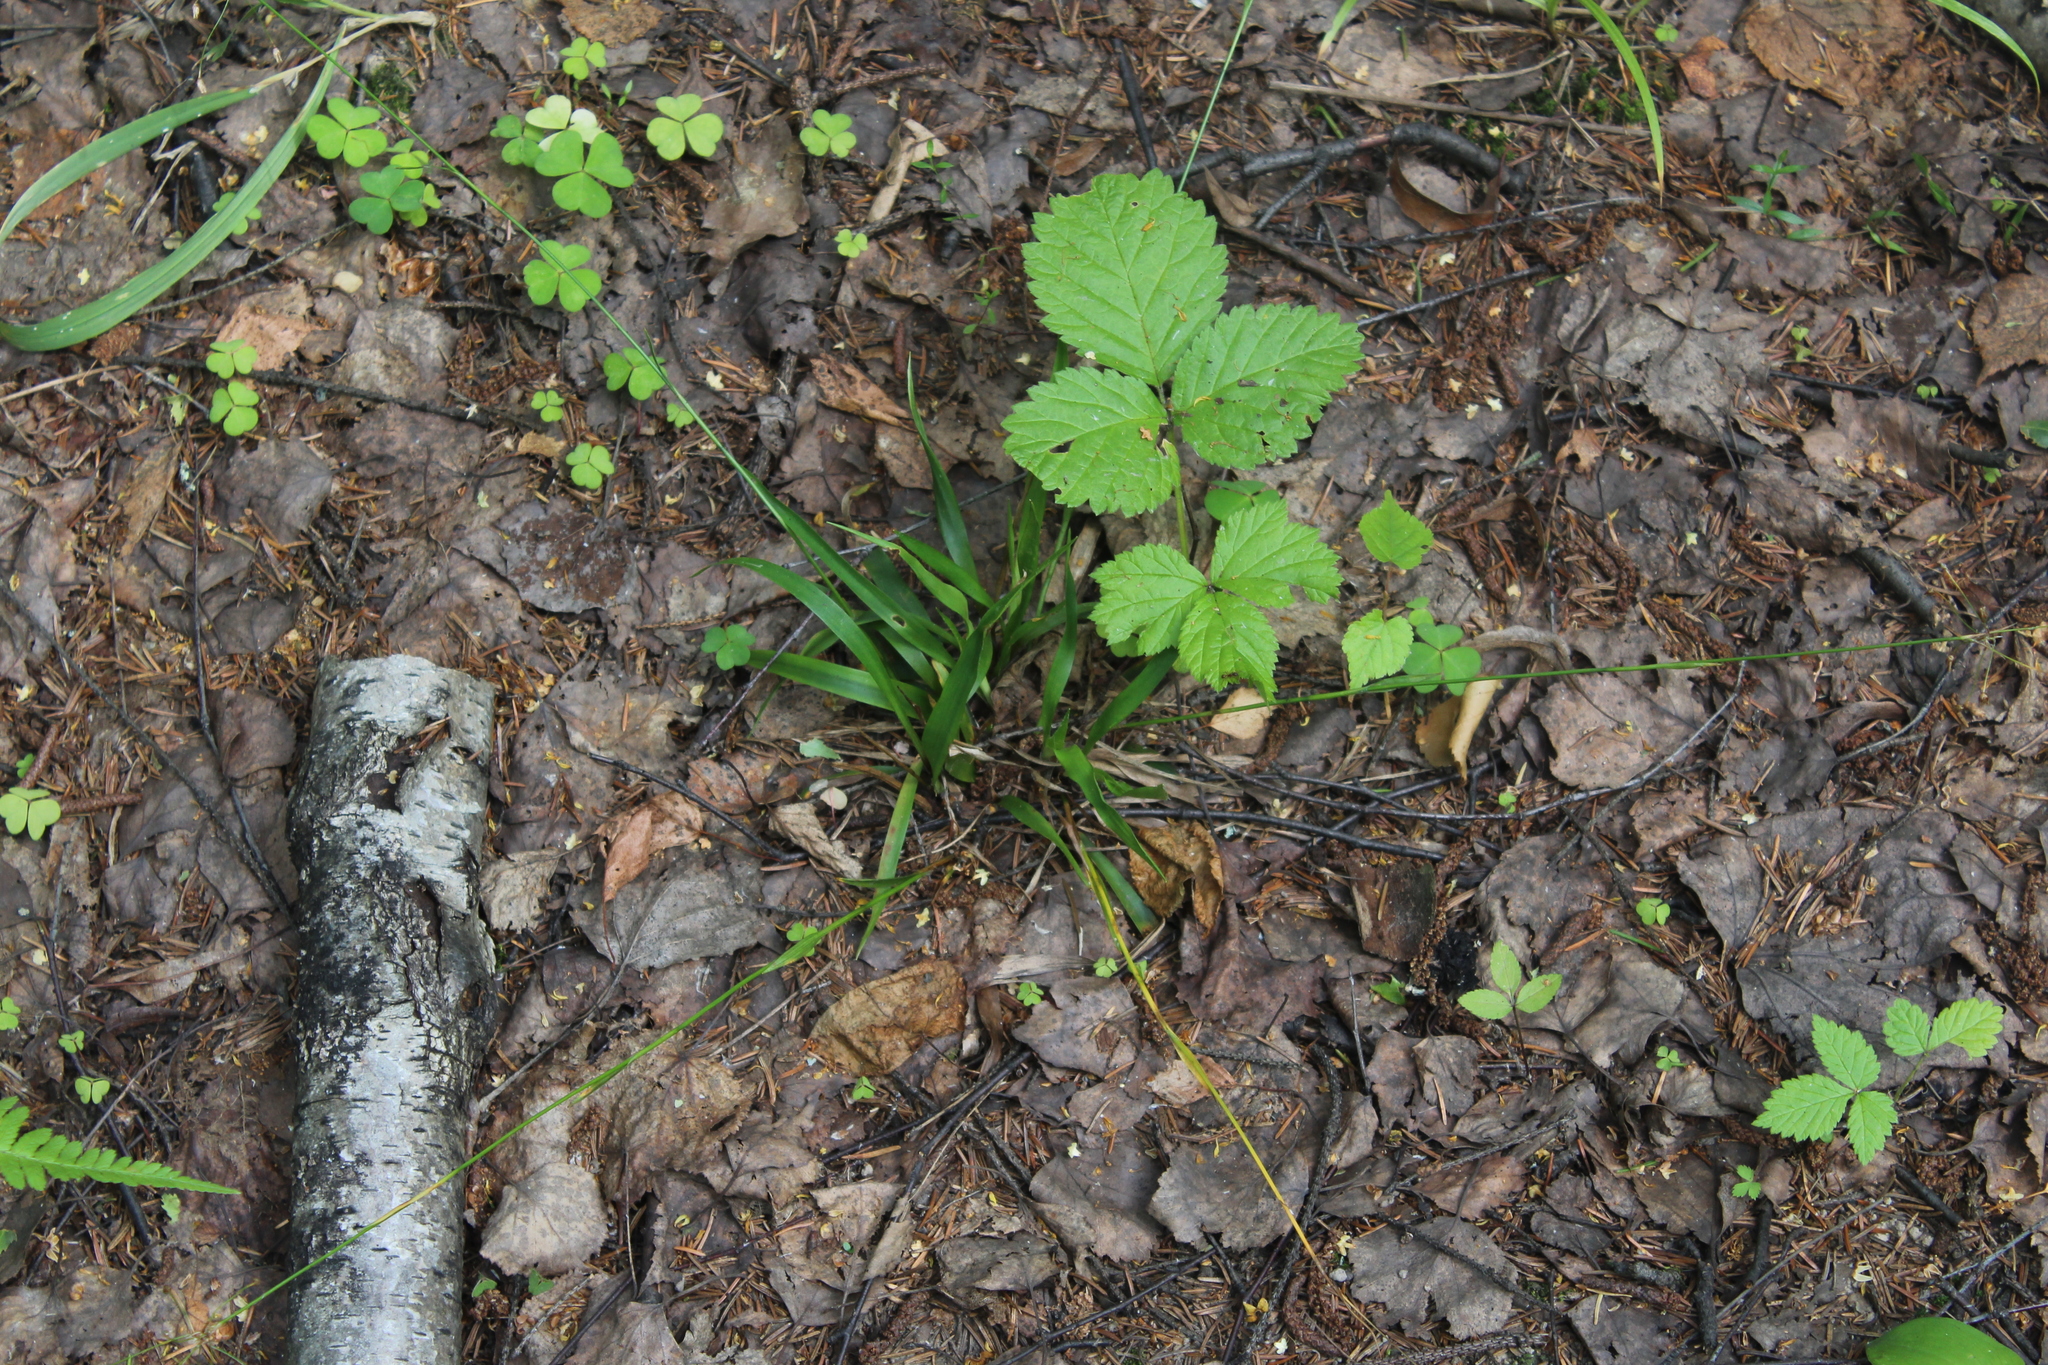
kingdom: Plantae
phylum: Tracheophyta
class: Liliopsida
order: Poales
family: Juncaceae
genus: Luzula
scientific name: Luzula pilosa
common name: Hairy wood-rush
